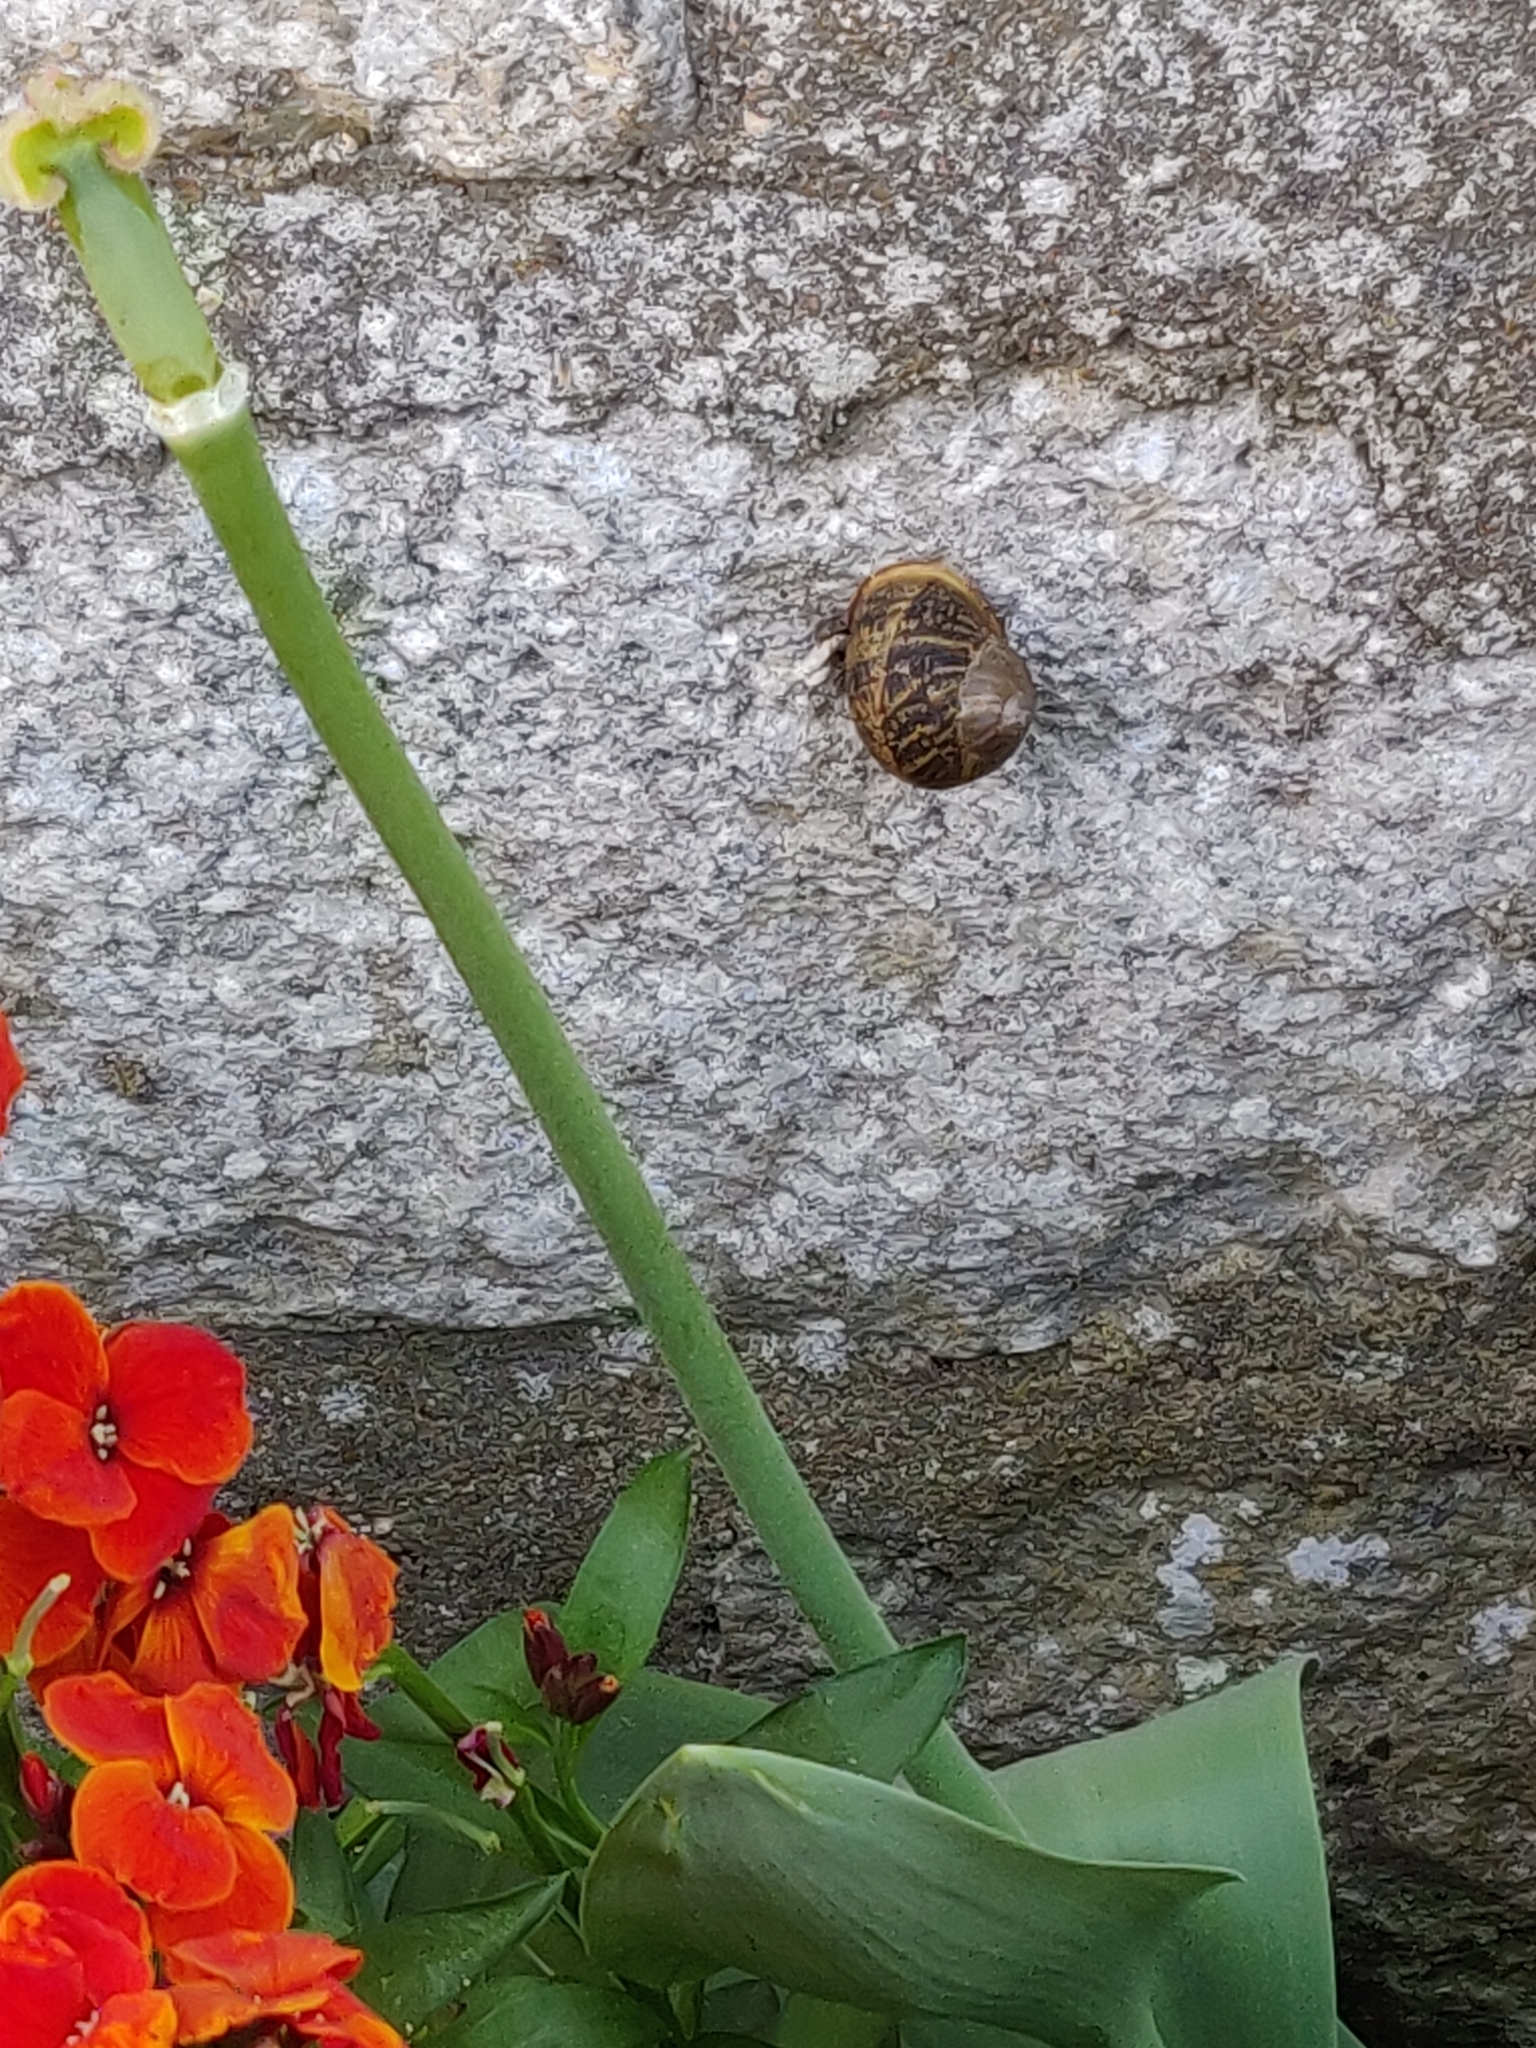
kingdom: Animalia
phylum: Mollusca
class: Gastropoda
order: Stylommatophora
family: Helicidae
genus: Cornu
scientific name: Cornu aspersum
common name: Brown garden snail
